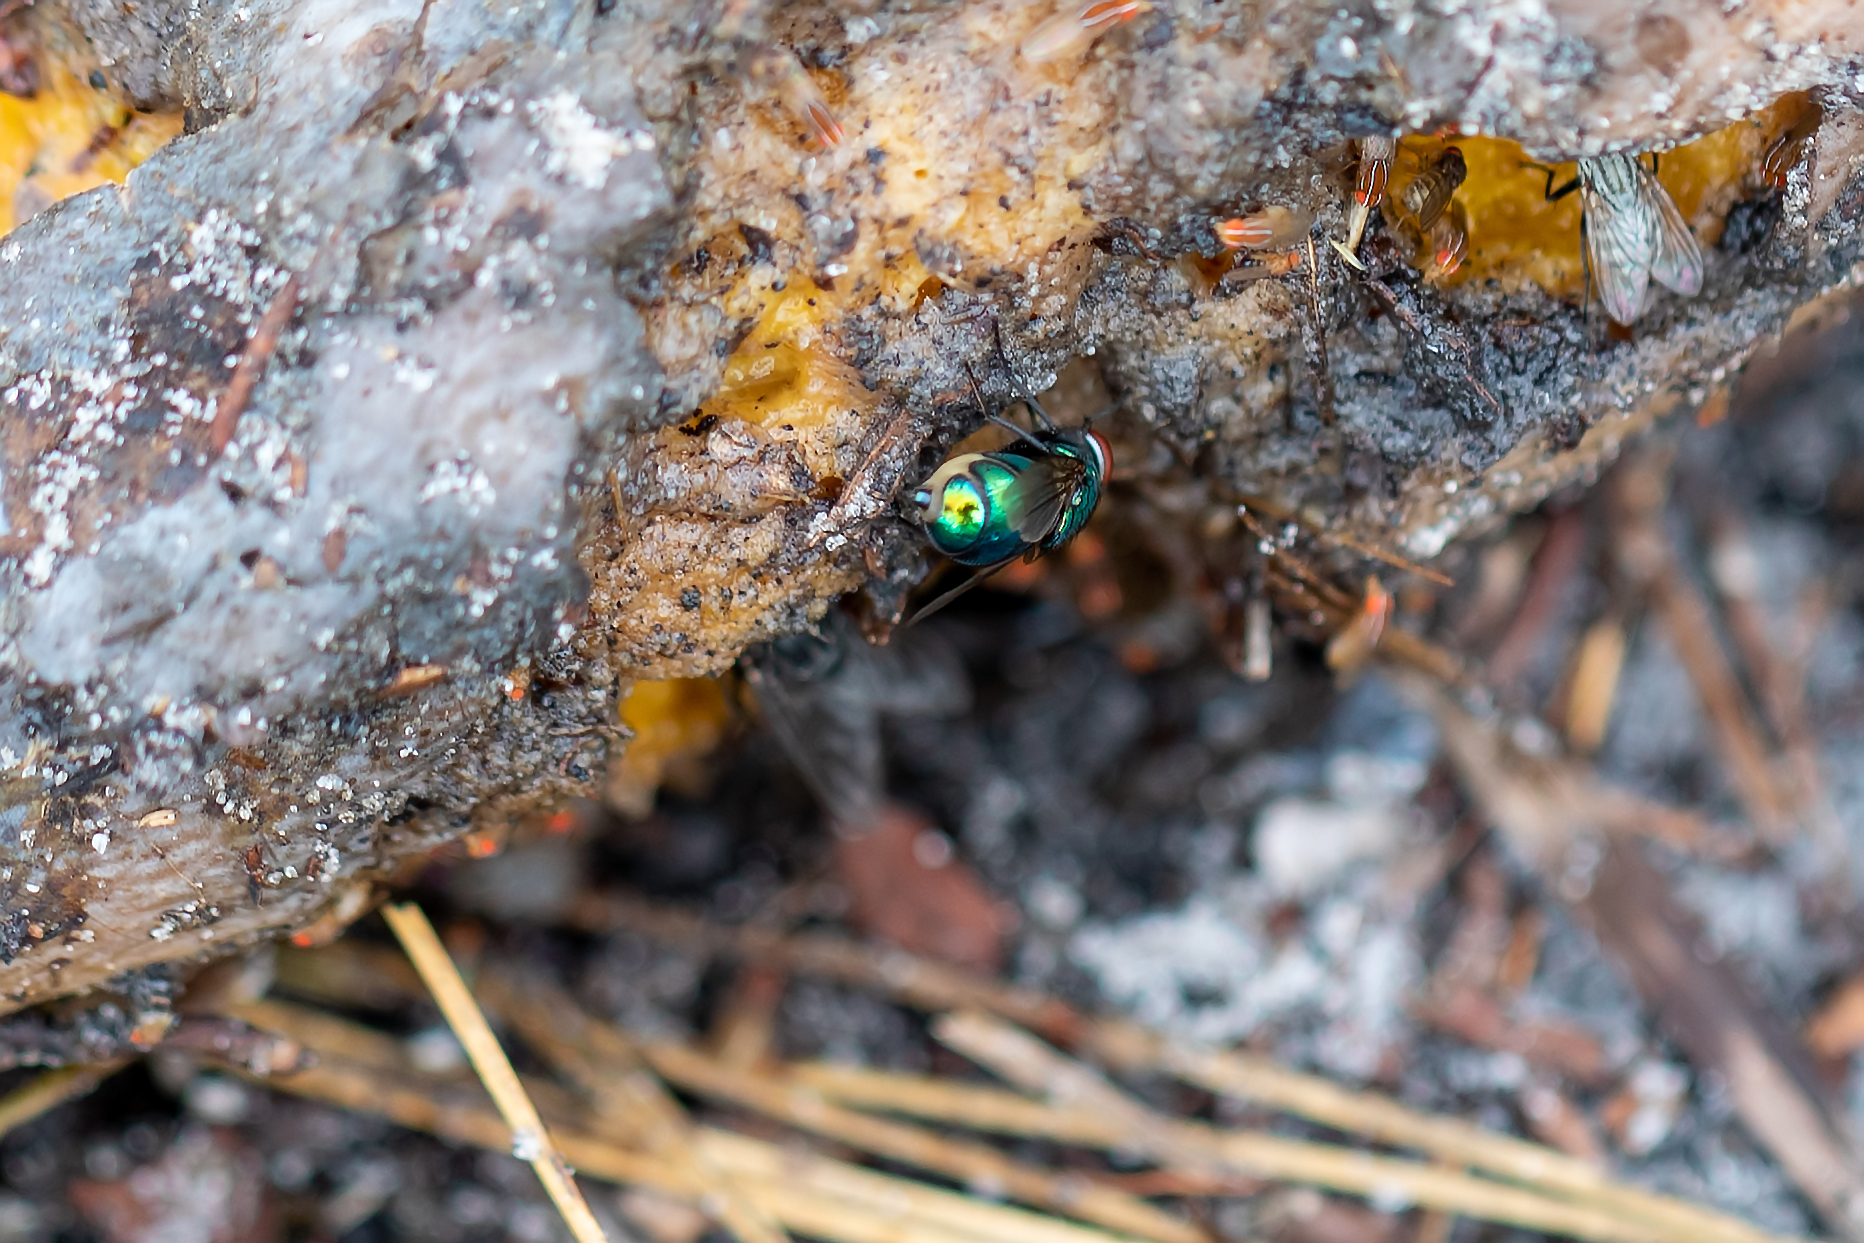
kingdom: Animalia
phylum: Arthropoda
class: Insecta
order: Diptera
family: Calliphoridae
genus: Lucilia
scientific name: Lucilia caeruleiviridis
